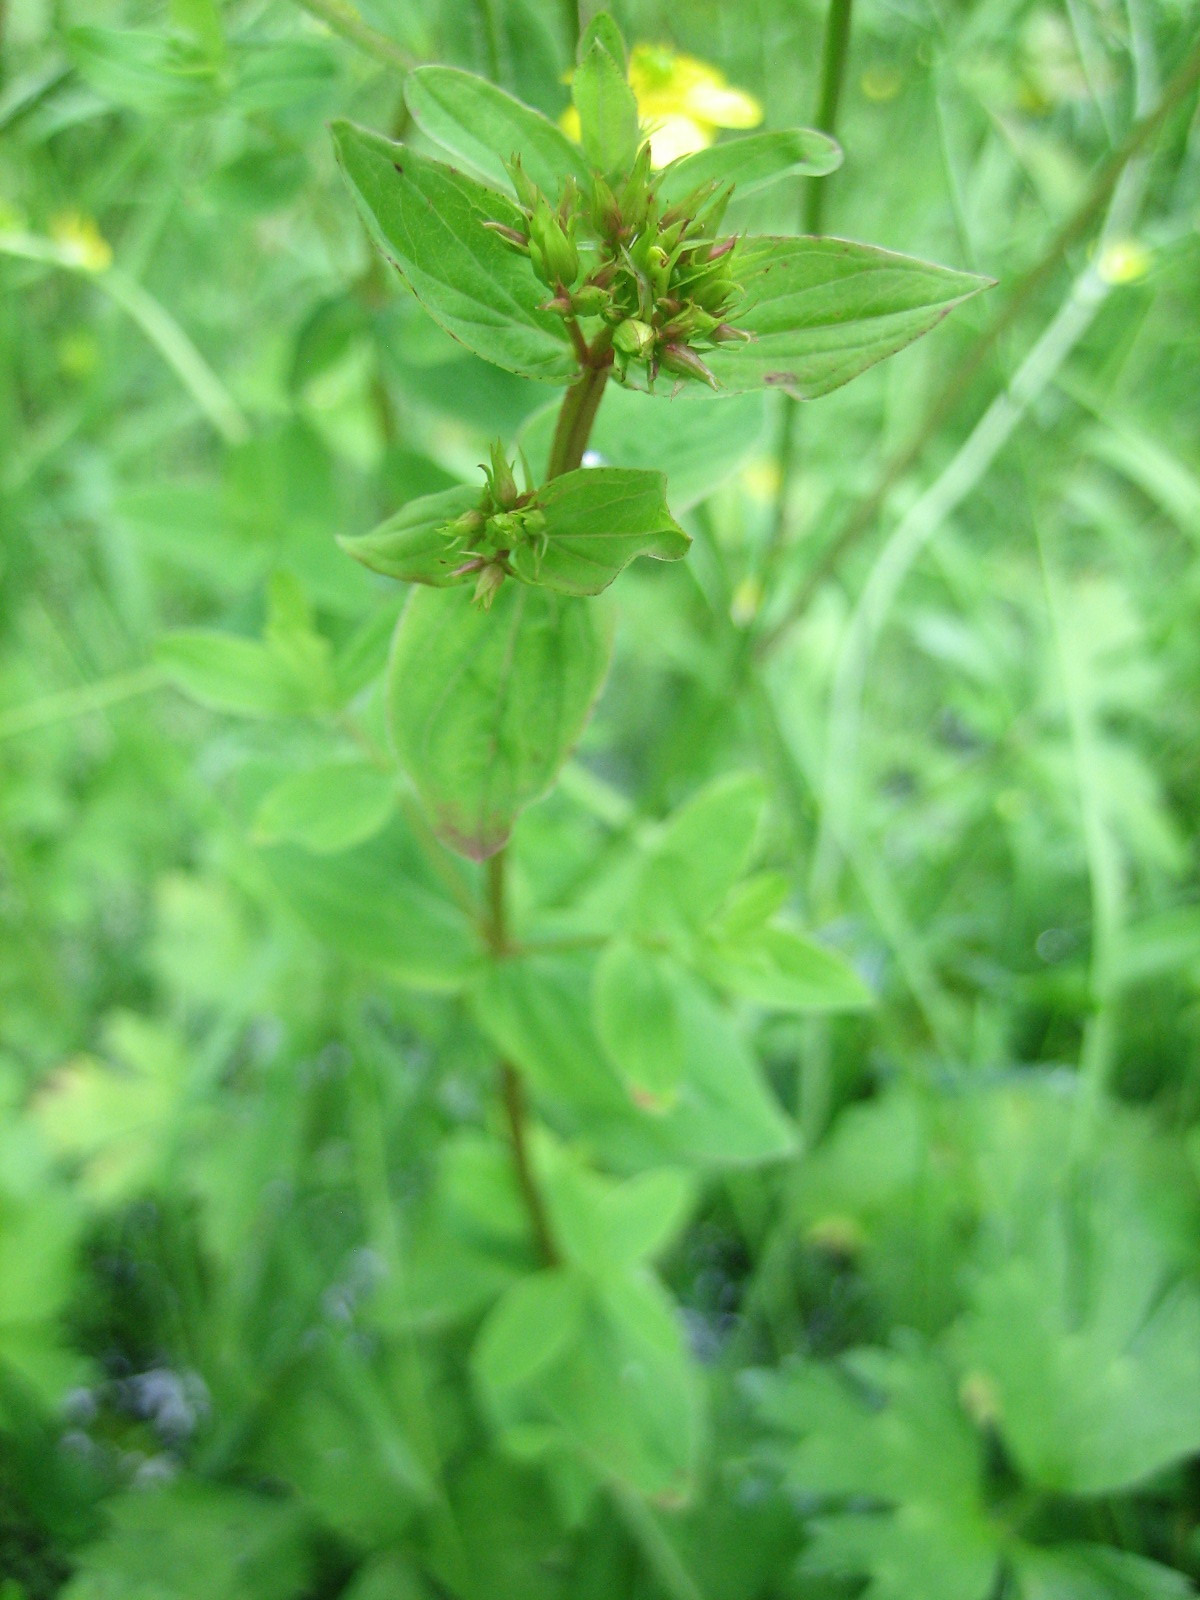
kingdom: Plantae
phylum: Tracheophyta
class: Magnoliopsida
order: Malpighiales
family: Hypericaceae
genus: Hypericum
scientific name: Hypericum tetrapterum
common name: Square-stalked st. john's-wort
